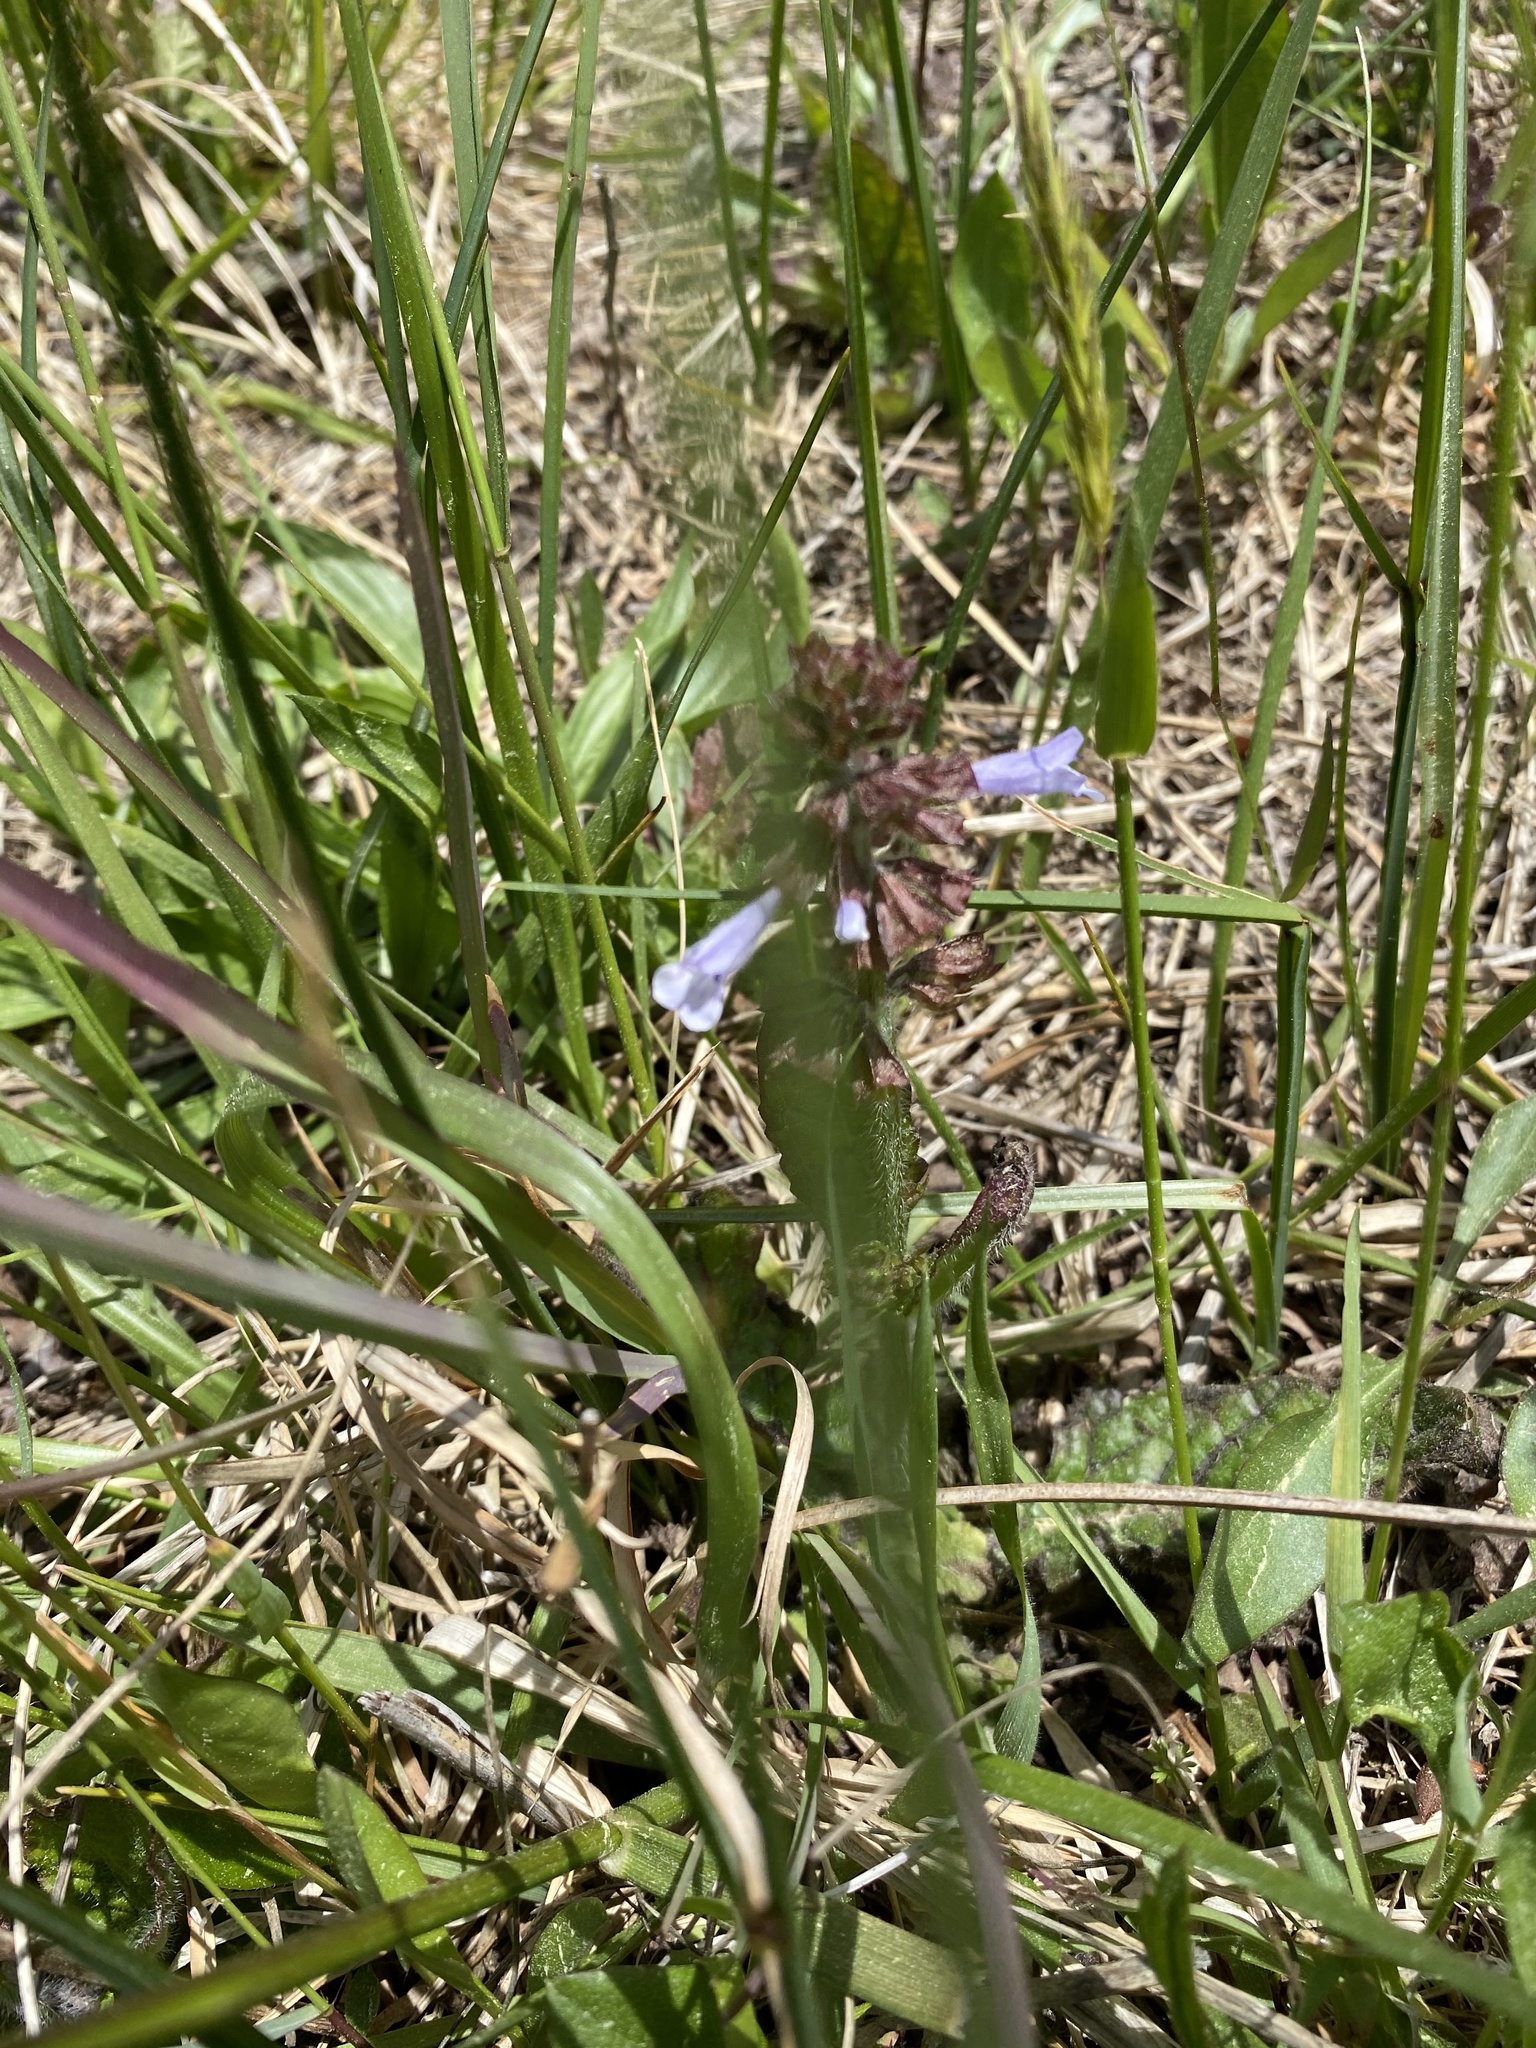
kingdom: Plantae
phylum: Tracheophyta
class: Magnoliopsida
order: Lamiales
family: Lamiaceae
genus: Salvia
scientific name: Salvia lyrata
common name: Cancerweed
